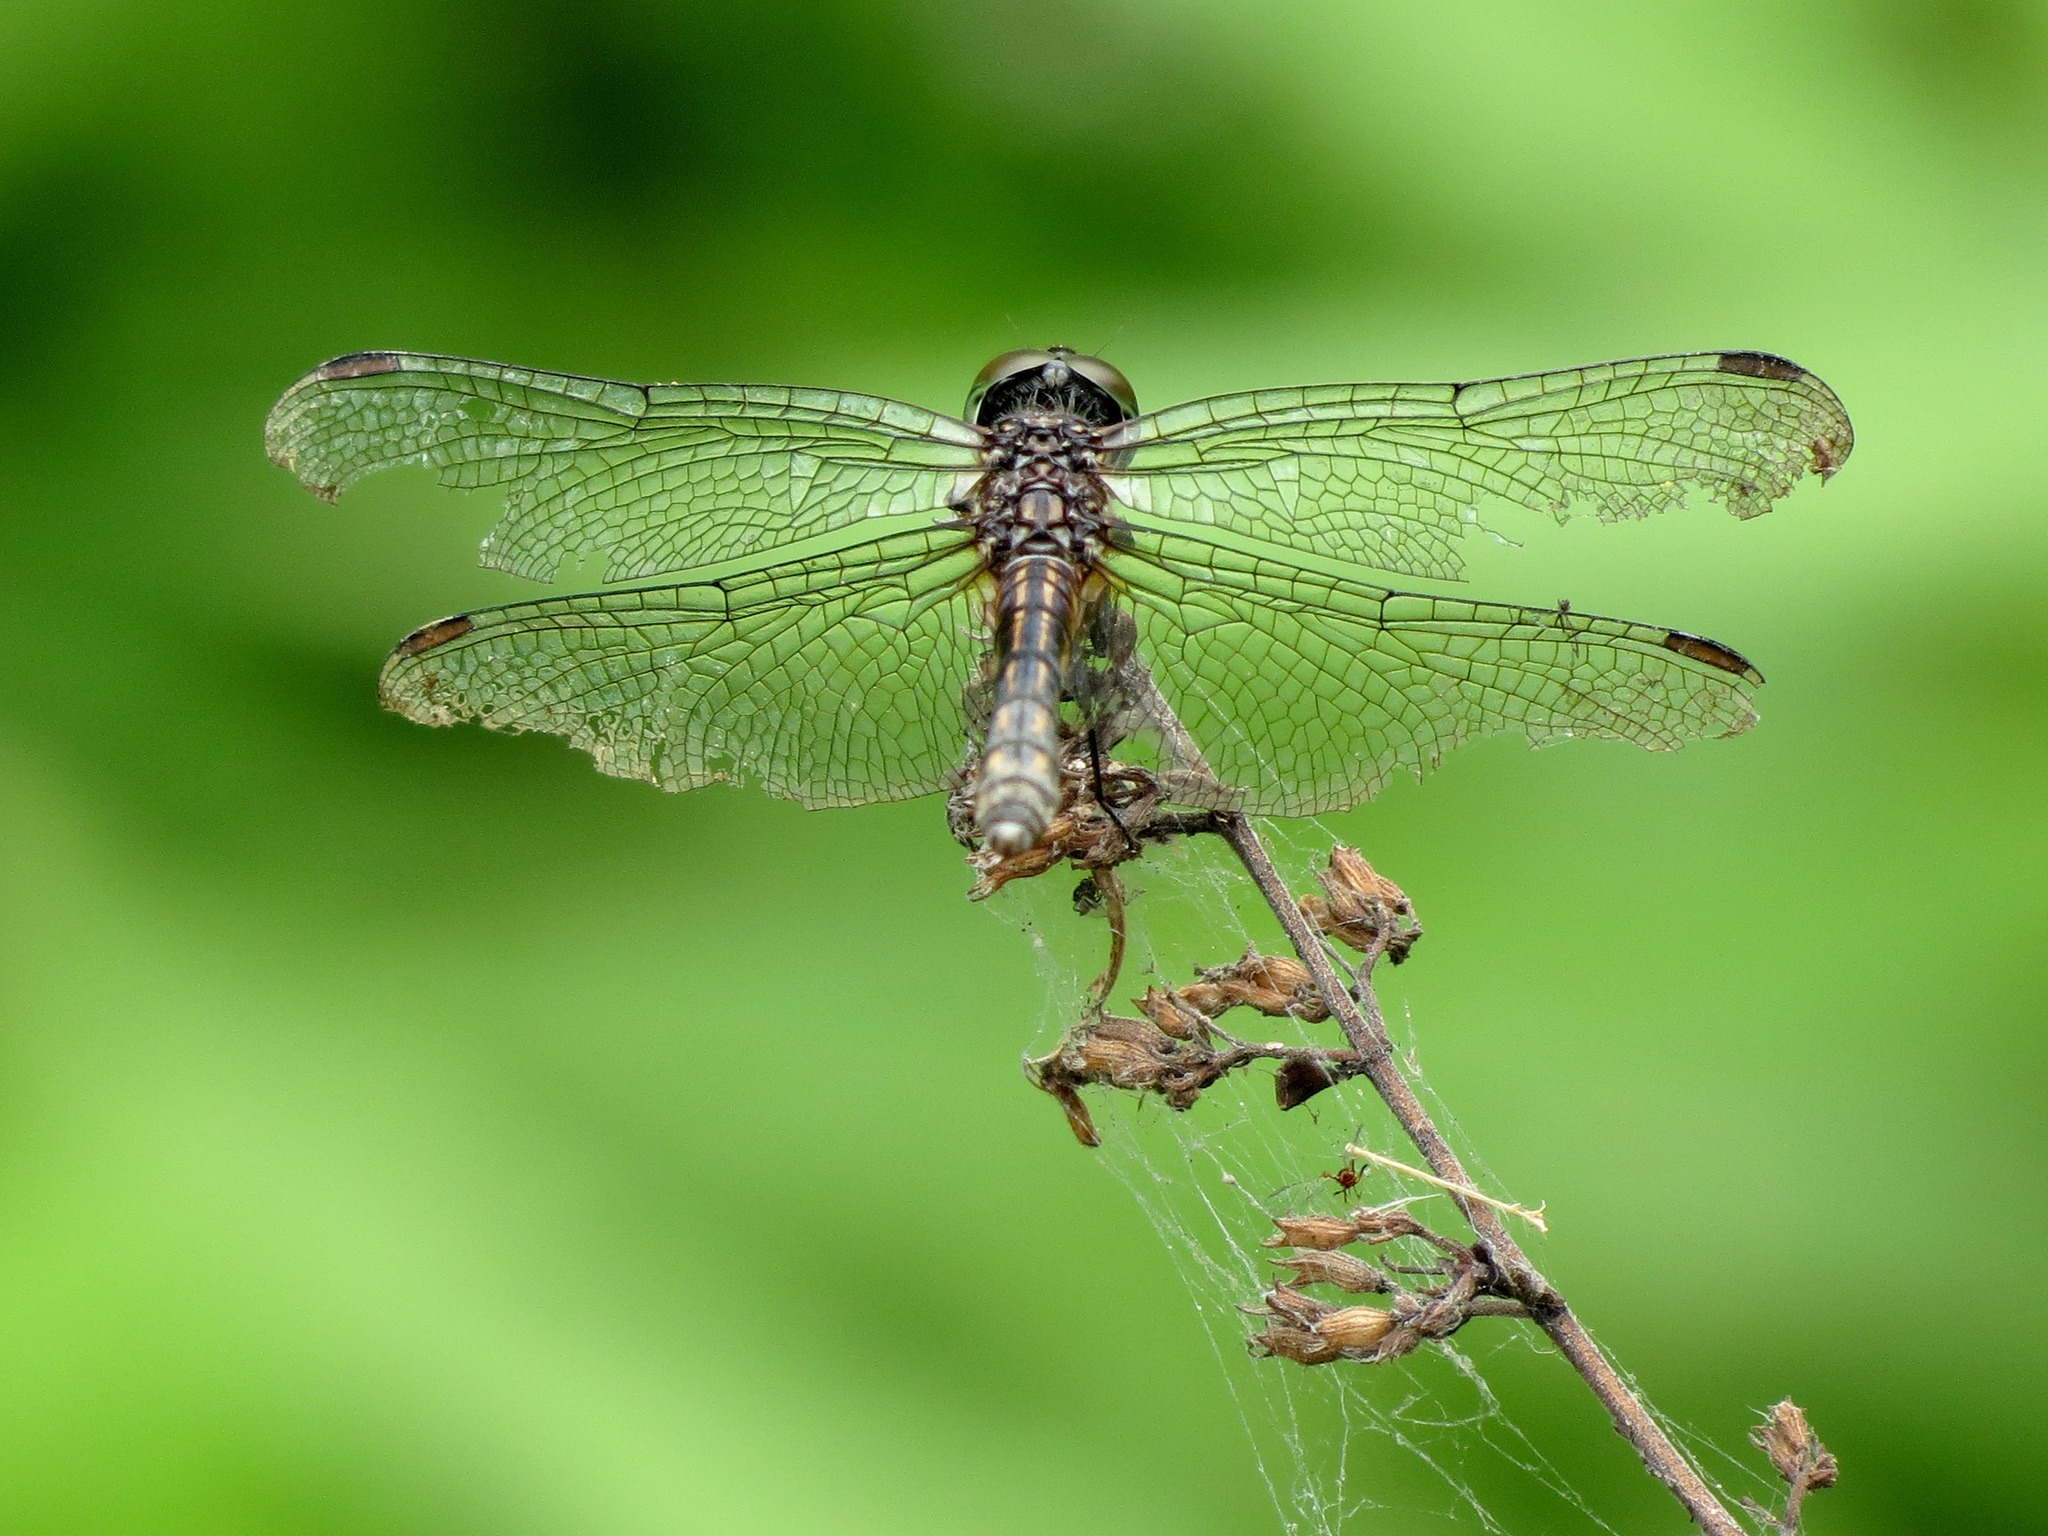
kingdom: Animalia
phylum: Arthropoda
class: Insecta
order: Odonata
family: Libellulidae
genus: Pachydiplax
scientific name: Pachydiplax longipennis
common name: Blue dasher
